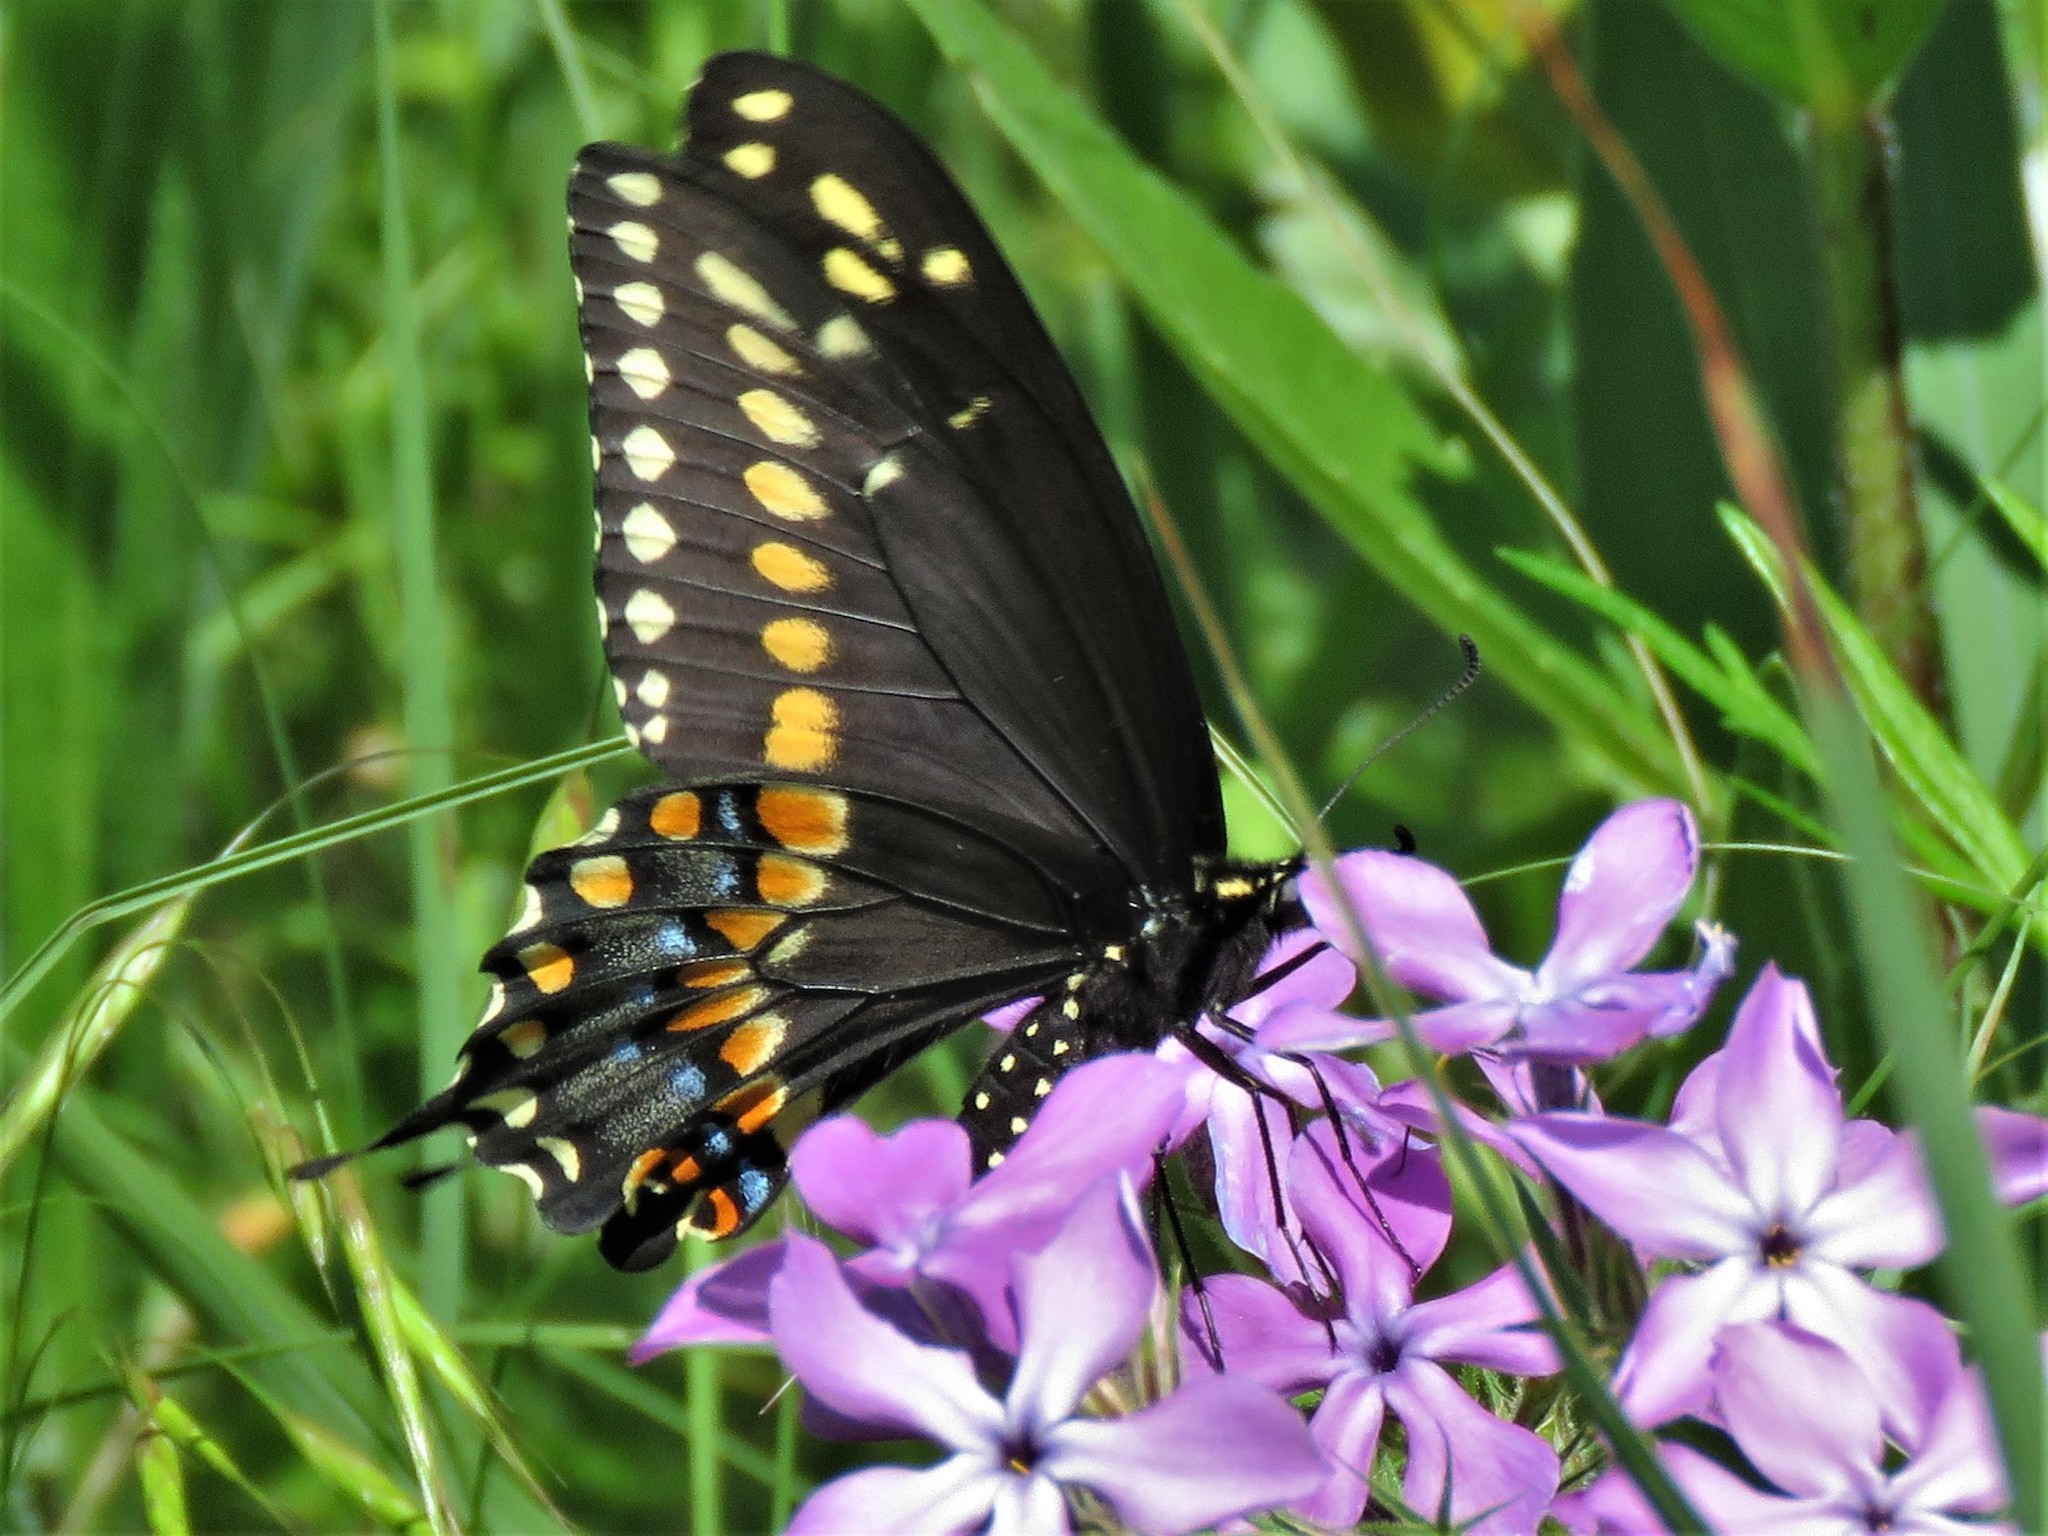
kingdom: Animalia
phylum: Arthropoda
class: Insecta
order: Lepidoptera
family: Papilionidae
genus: Papilio
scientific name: Papilio polyxenes
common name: Black swallowtail
